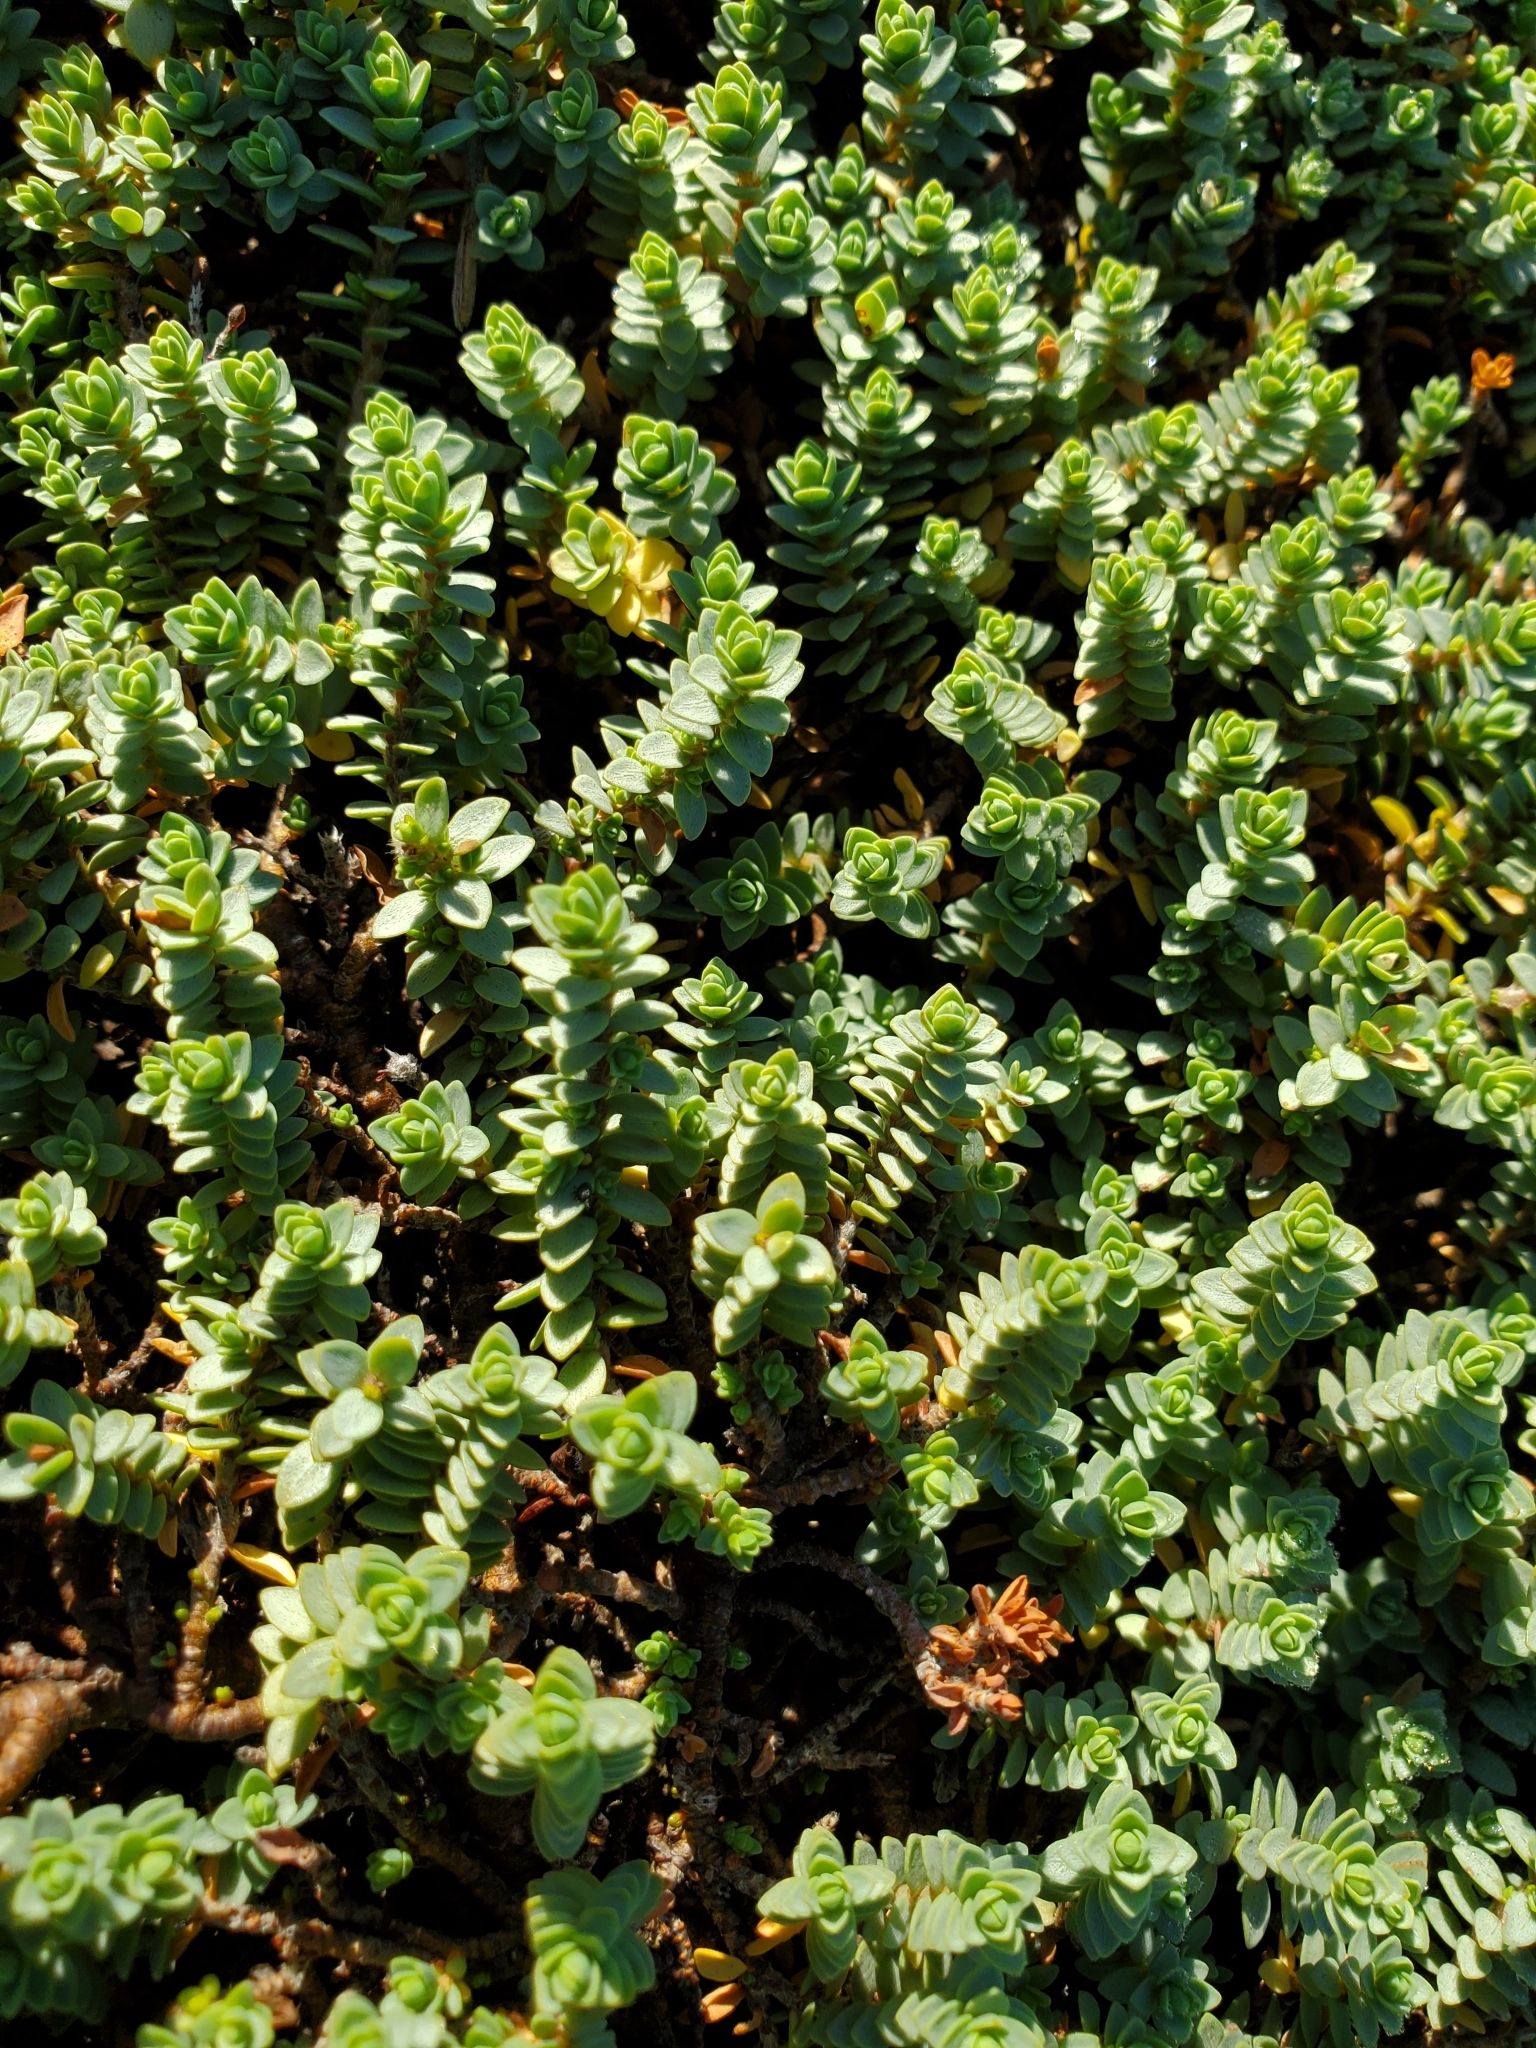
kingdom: Plantae
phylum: Tracheophyta
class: Magnoliopsida
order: Malvales
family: Thymelaeaceae
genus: Pimelea
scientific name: Pimelea prostrata
